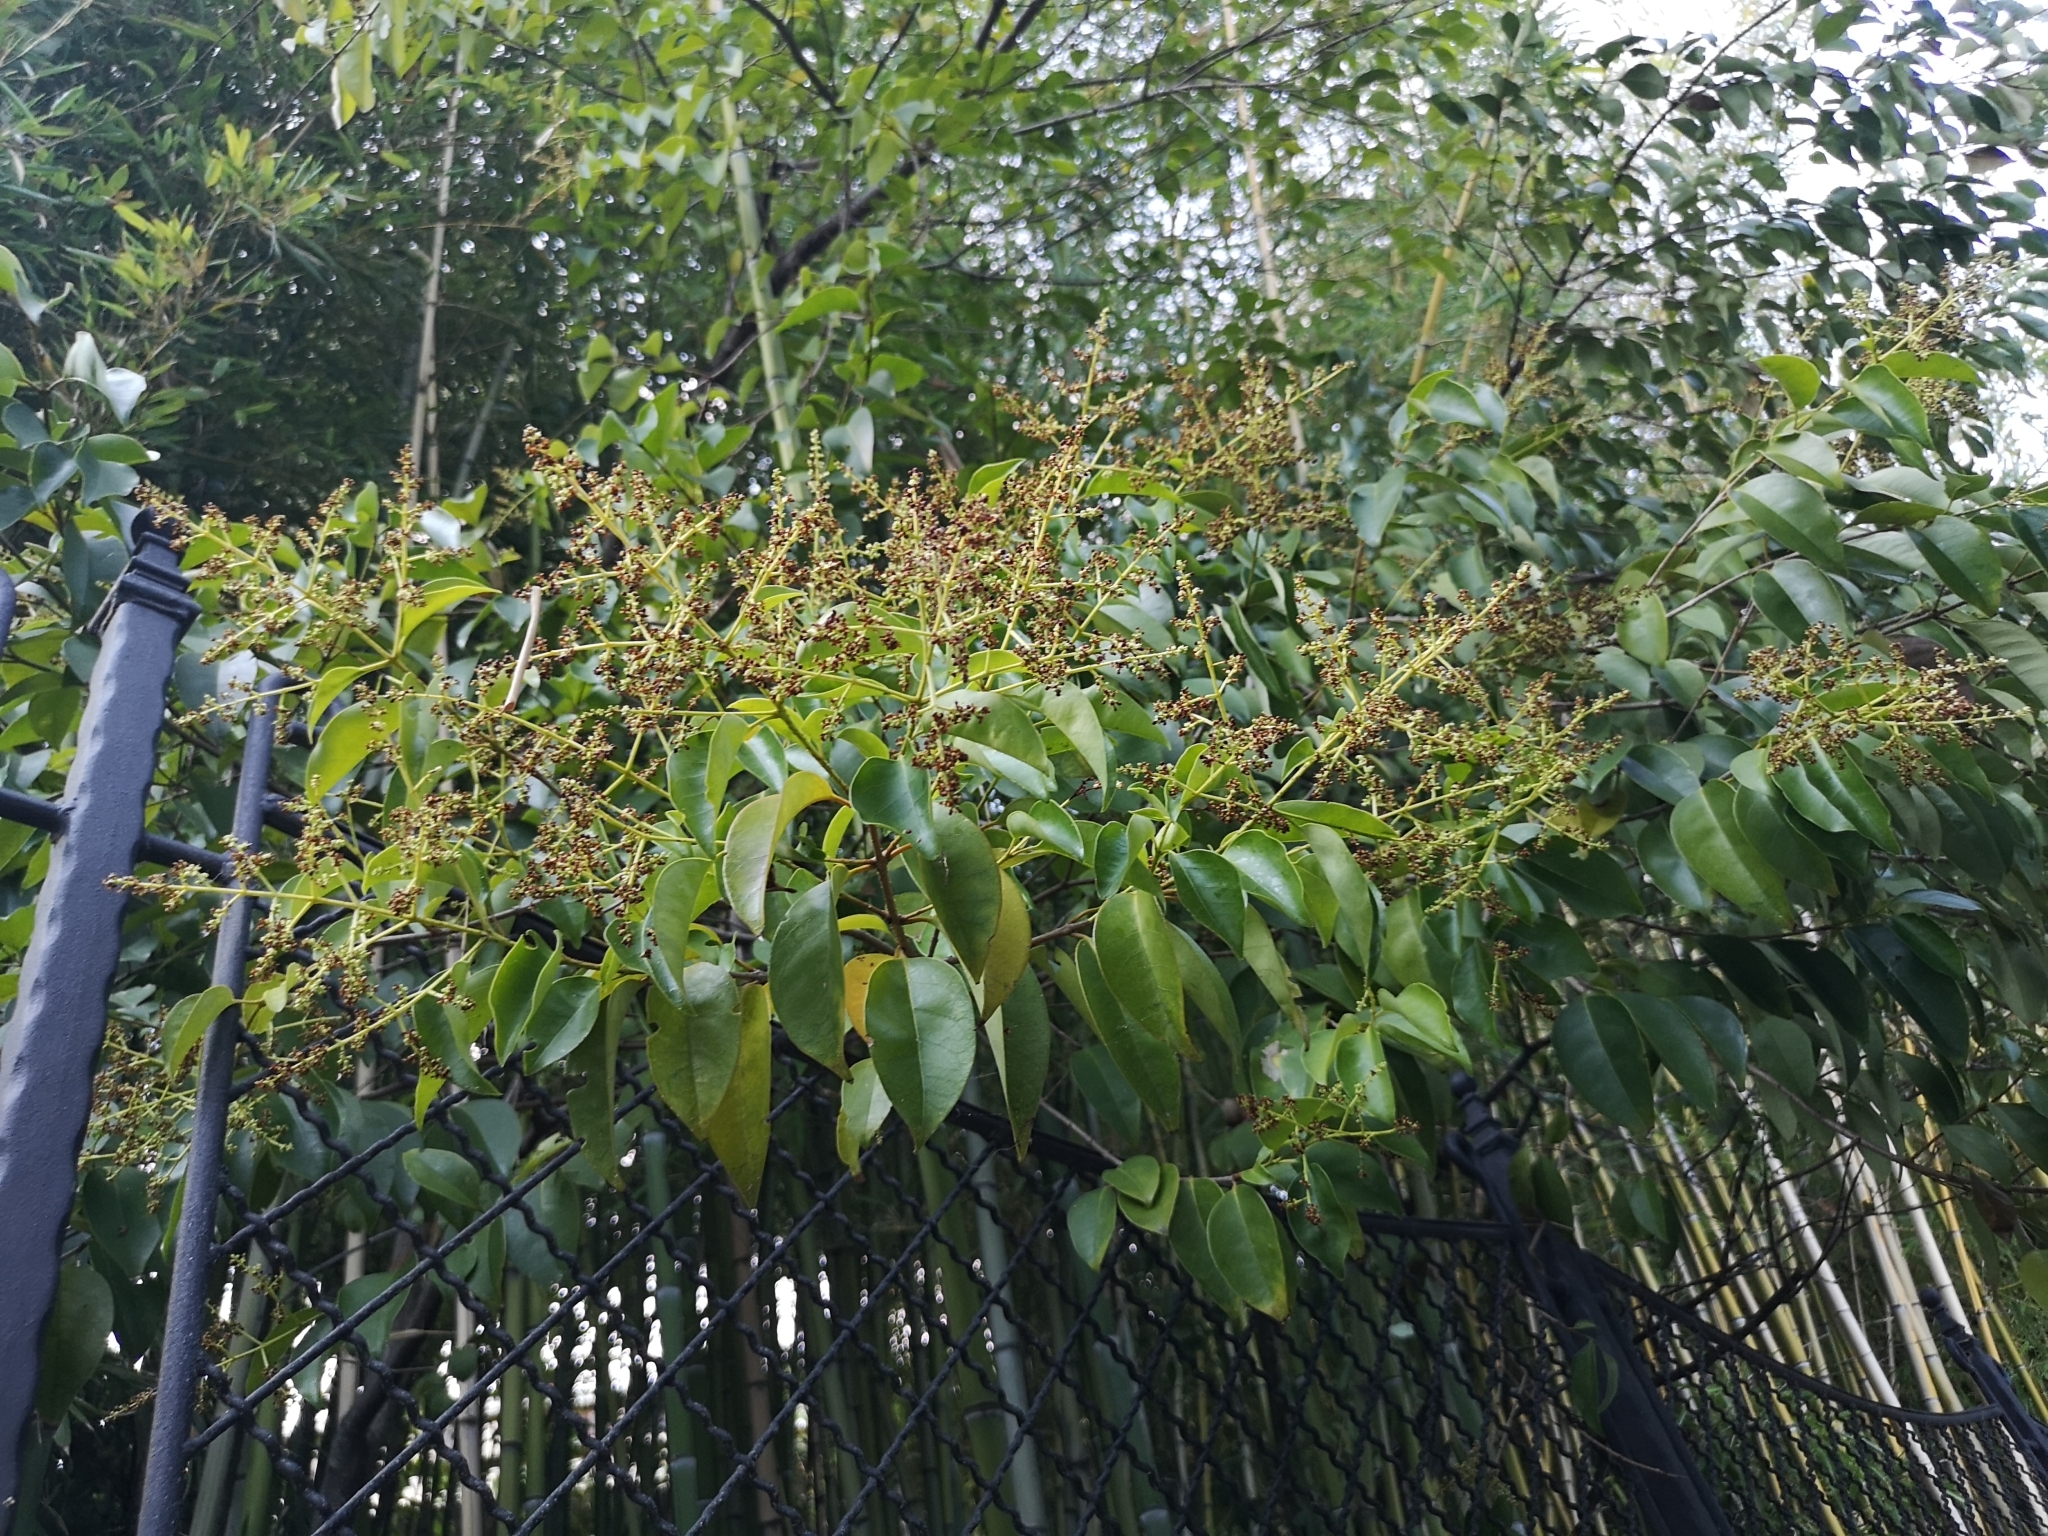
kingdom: Plantae
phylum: Tracheophyta
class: Magnoliopsida
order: Lamiales
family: Oleaceae
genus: Ligustrum
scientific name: Ligustrum lucidum
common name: Glossy privet
